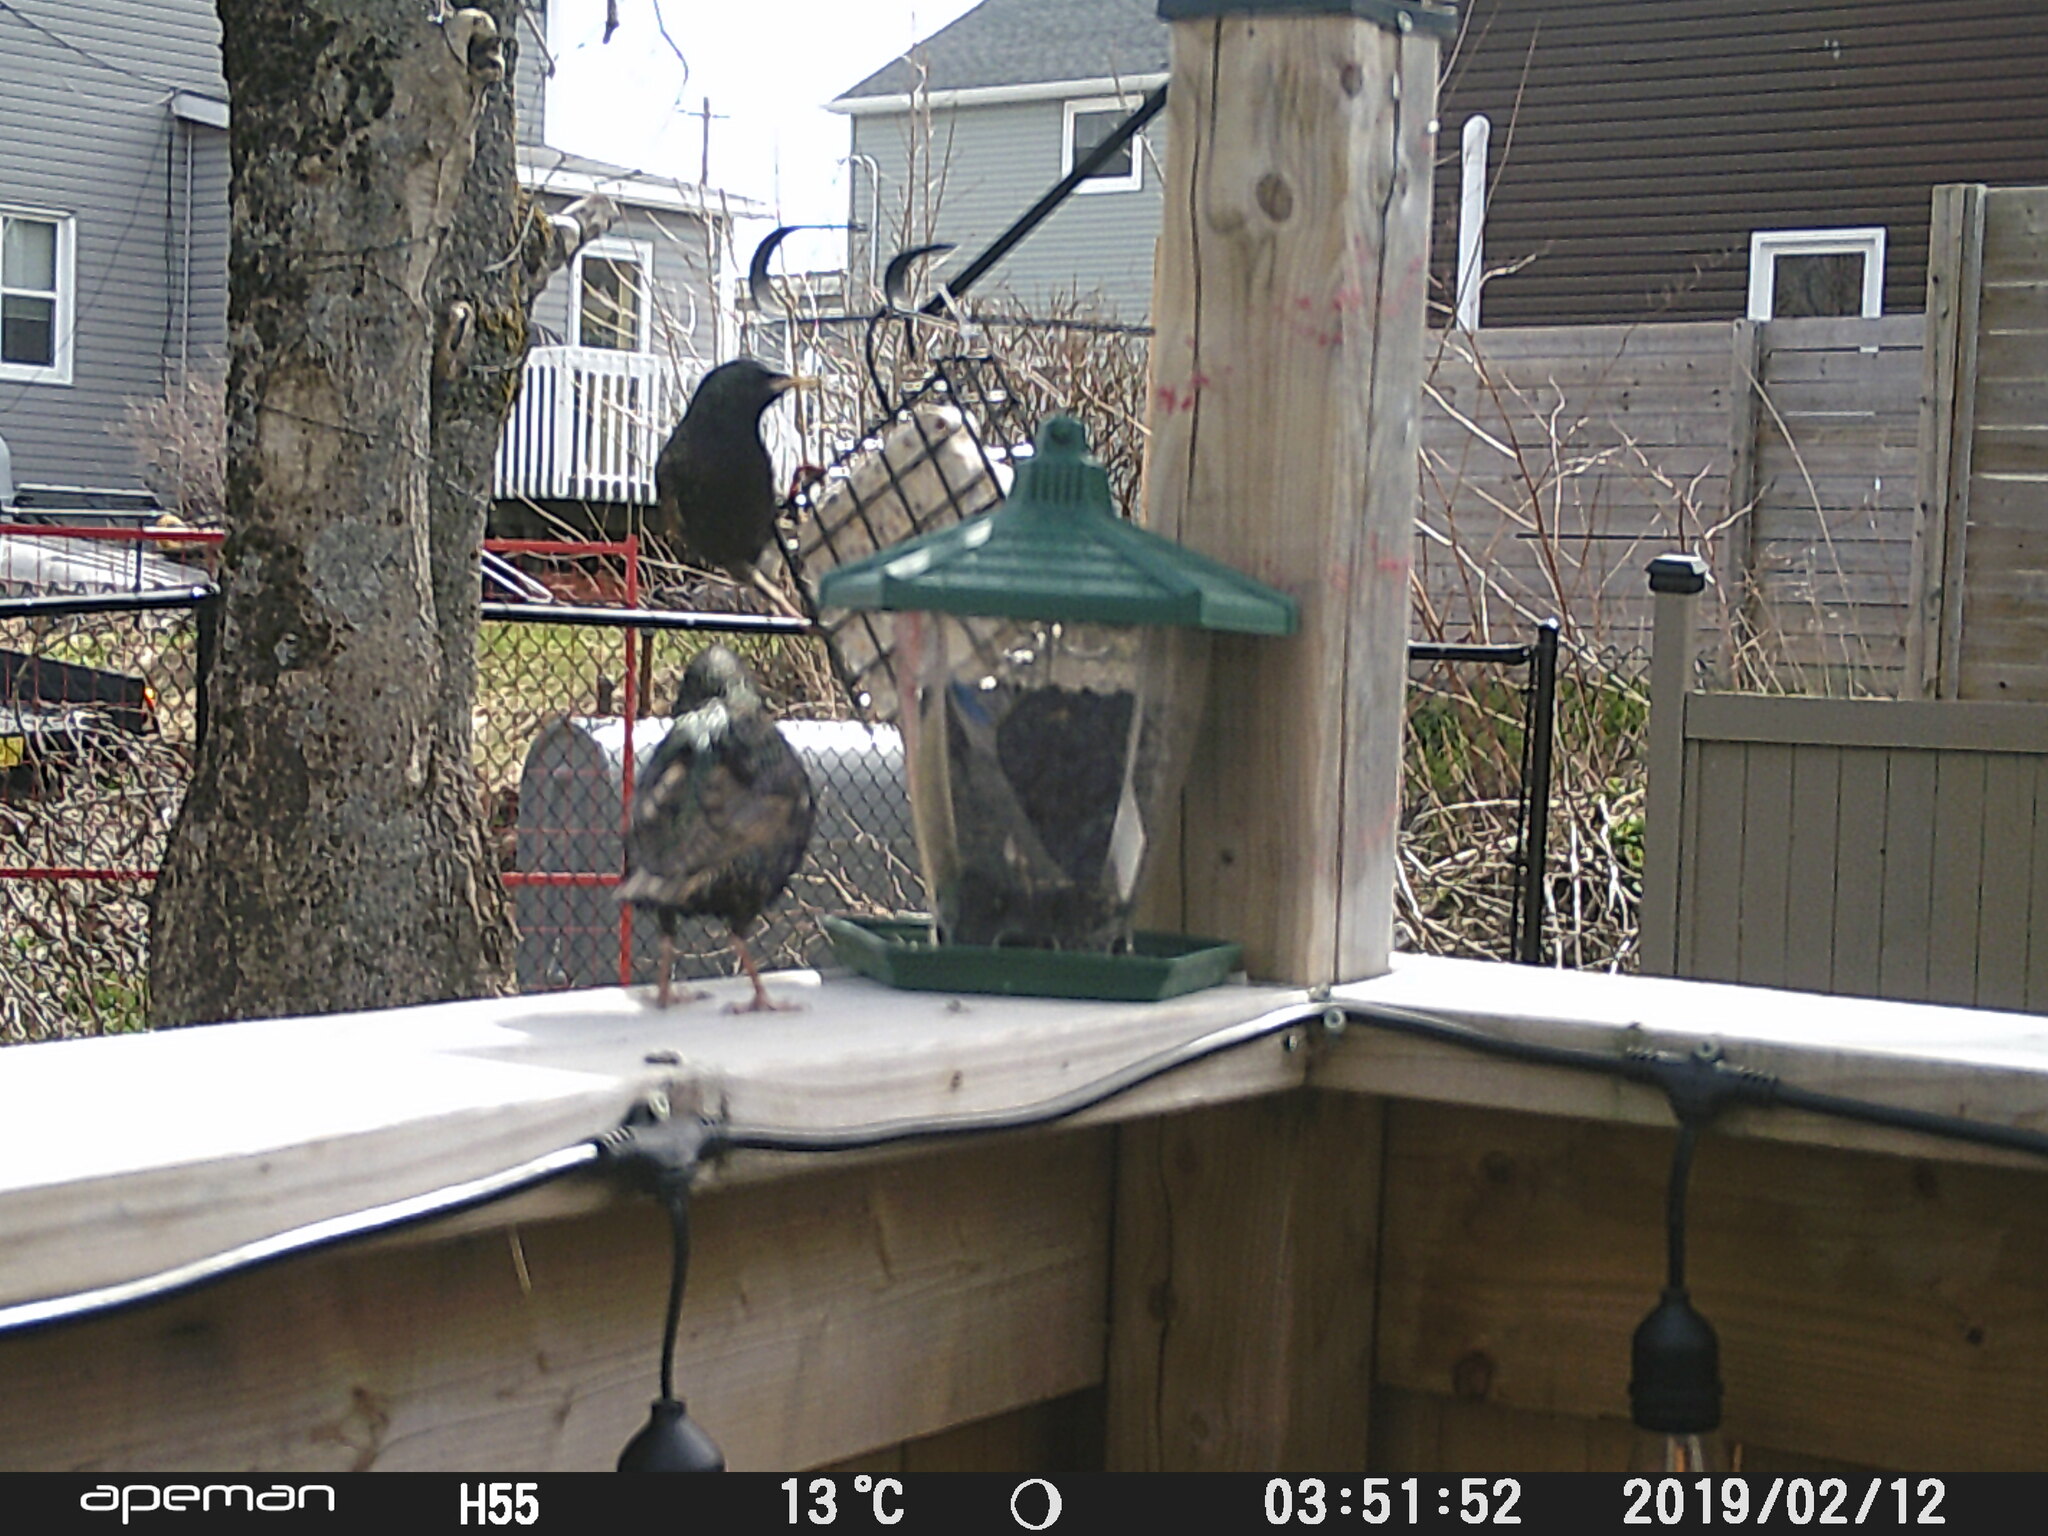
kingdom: Animalia
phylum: Chordata
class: Aves
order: Passeriformes
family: Sturnidae
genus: Sturnus
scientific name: Sturnus vulgaris
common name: Common starling
